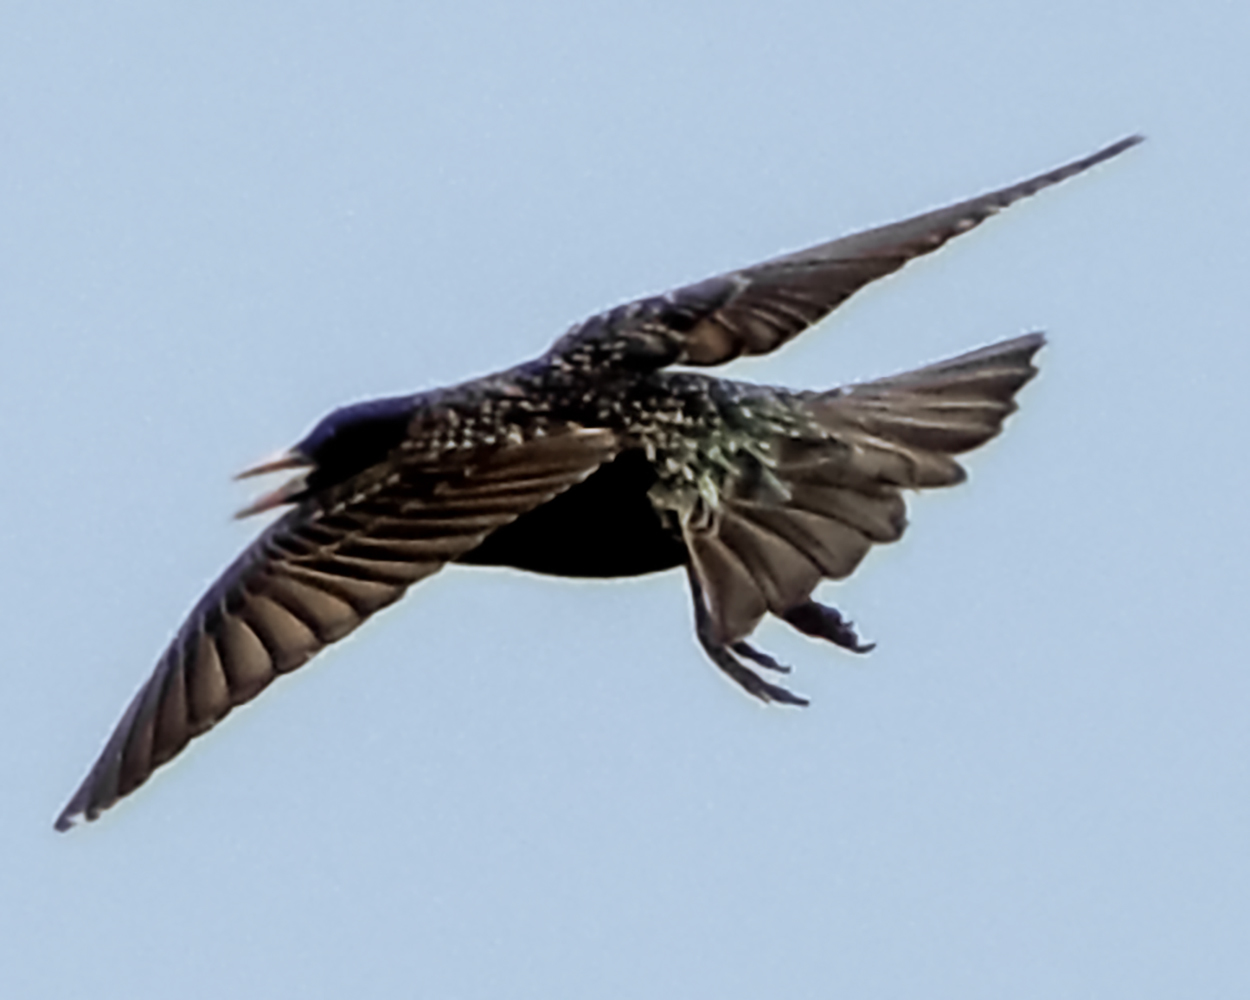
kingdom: Animalia
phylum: Chordata
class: Aves
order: Passeriformes
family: Sturnidae
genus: Sturnus
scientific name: Sturnus vulgaris
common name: Common starling
